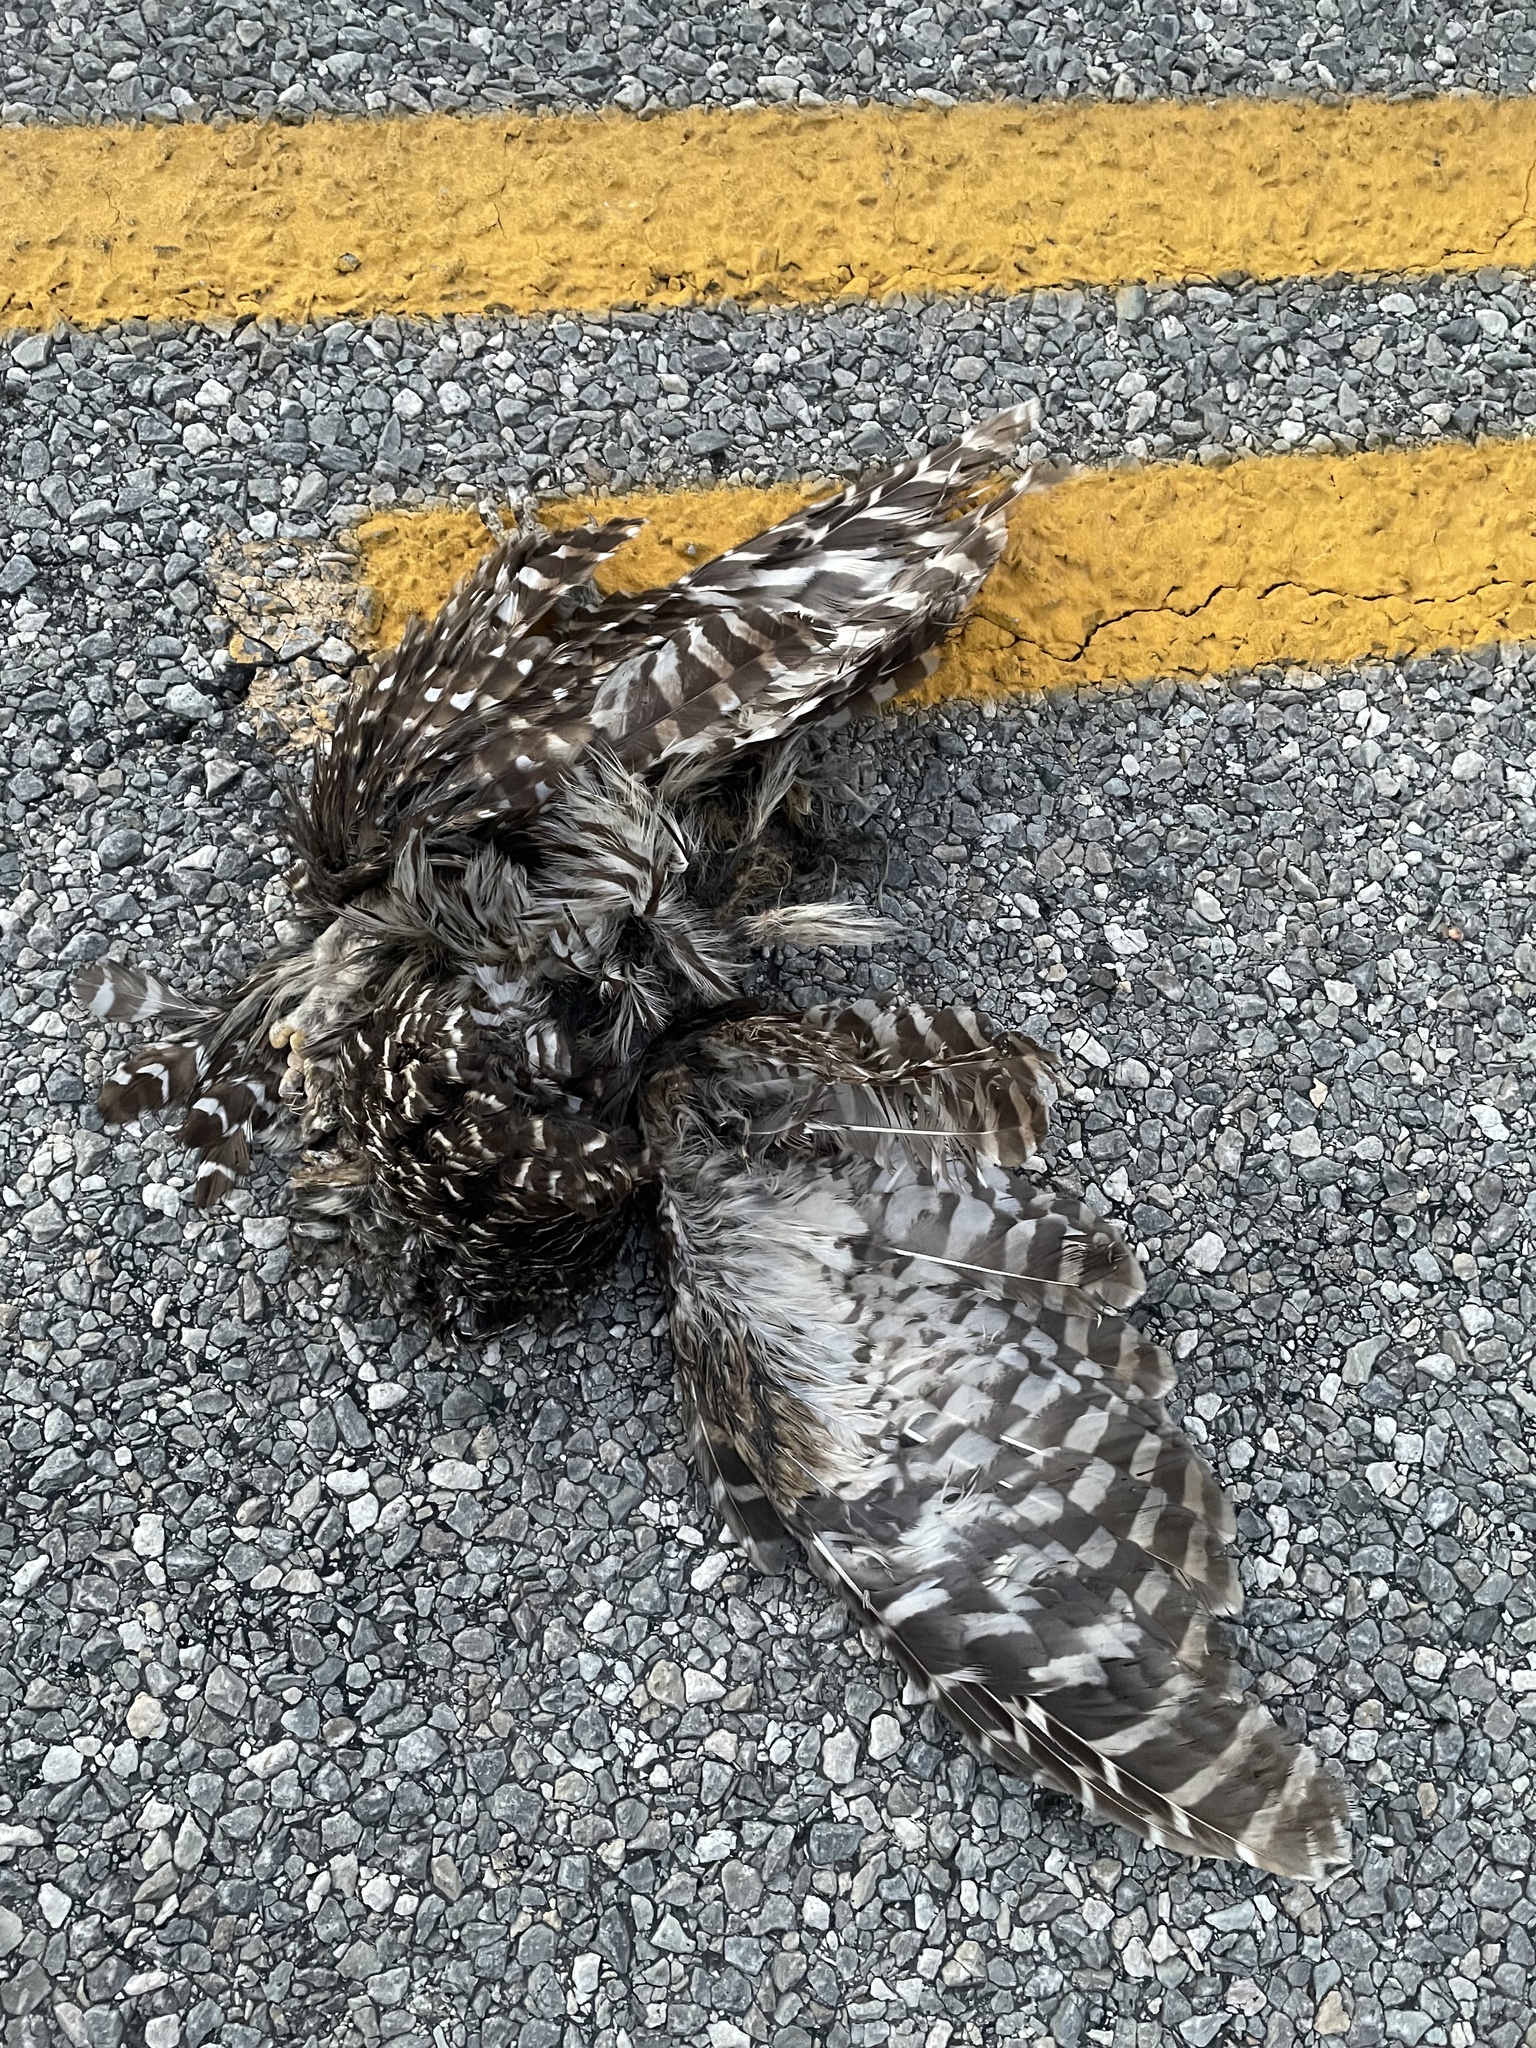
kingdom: Animalia
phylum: Chordata
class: Aves
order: Strigiformes
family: Strigidae
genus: Strix
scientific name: Strix varia
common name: Barred owl
